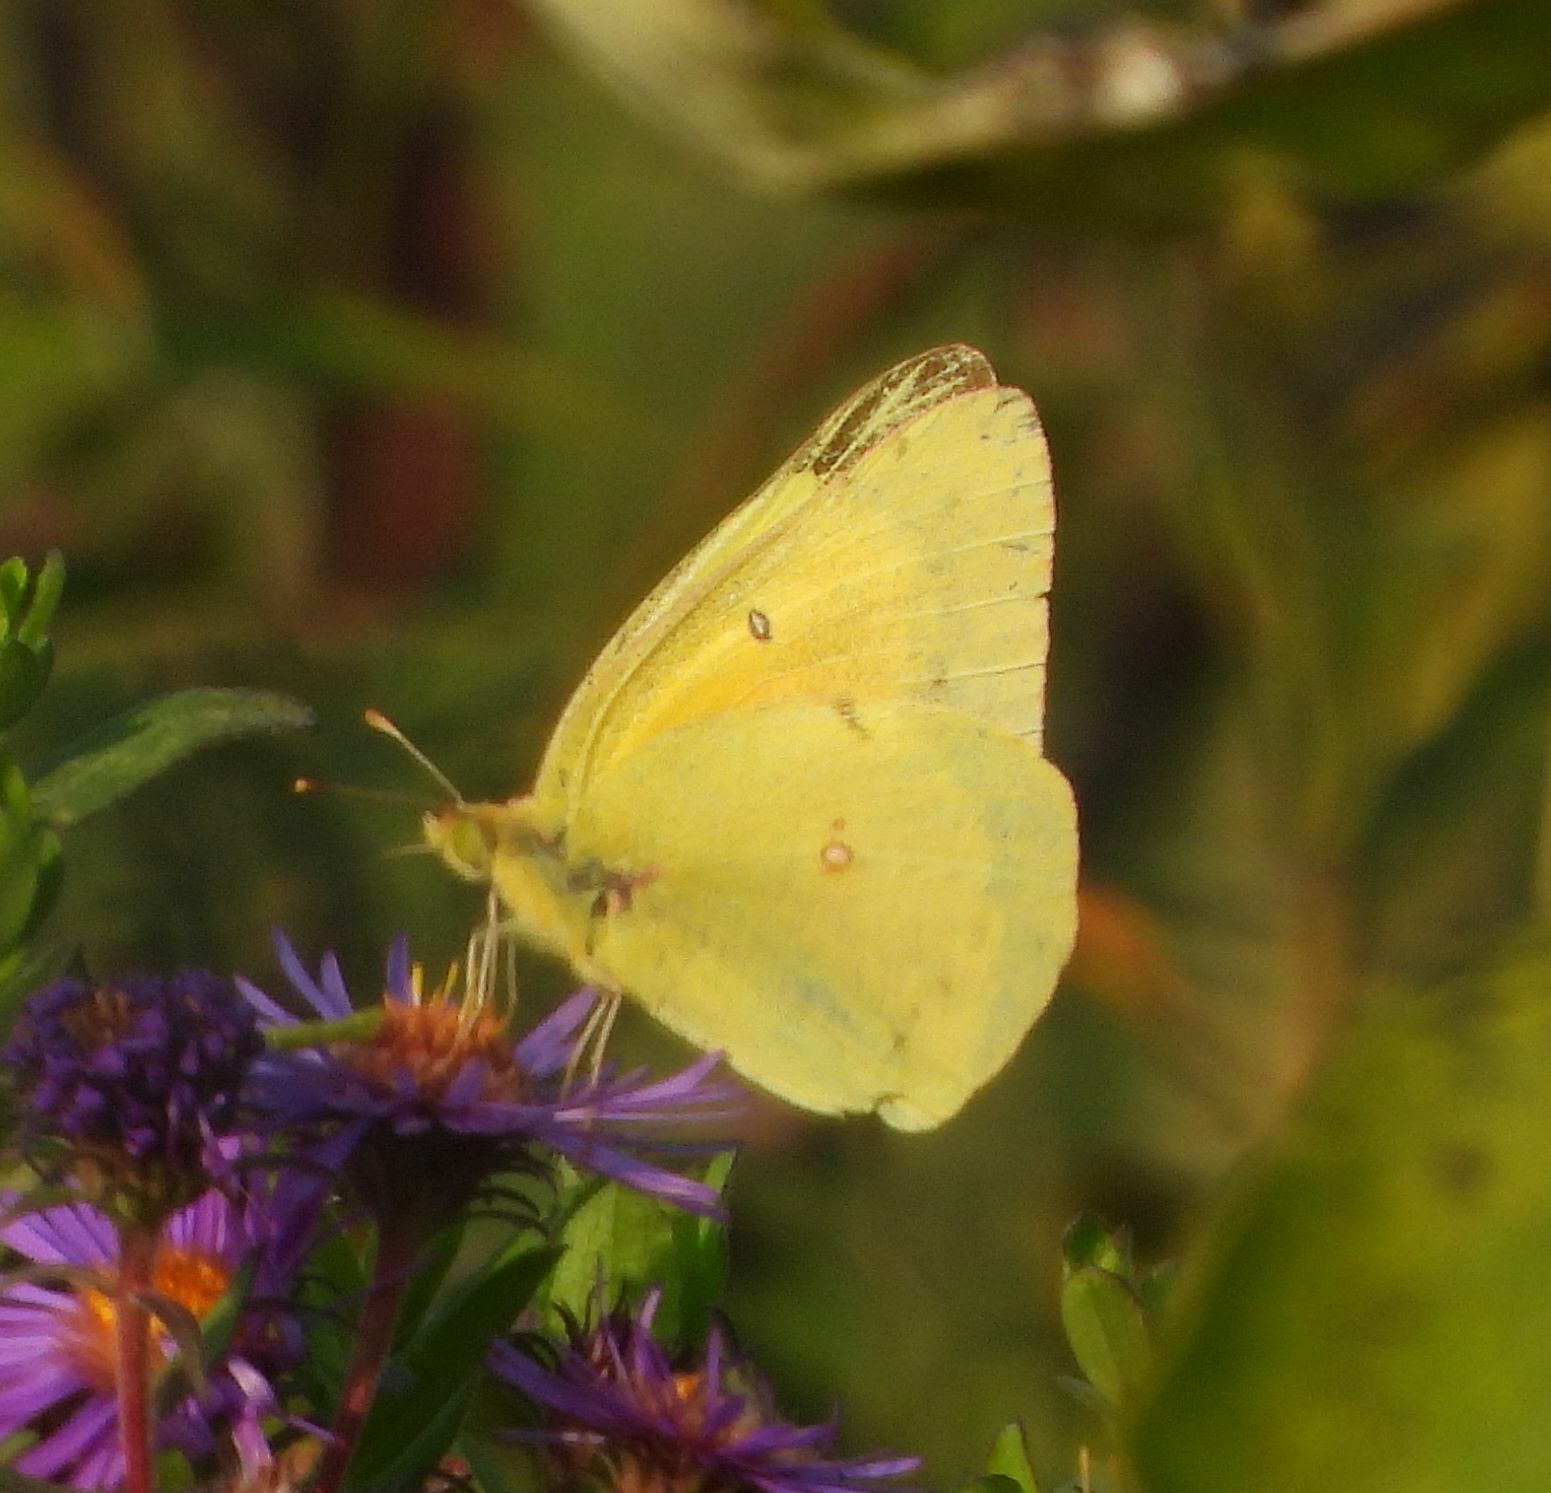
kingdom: Animalia
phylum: Arthropoda
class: Insecta
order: Lepidoptera
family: Pieridae
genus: Colias
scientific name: Colias eurytheme
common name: Alfalfa butterfly
